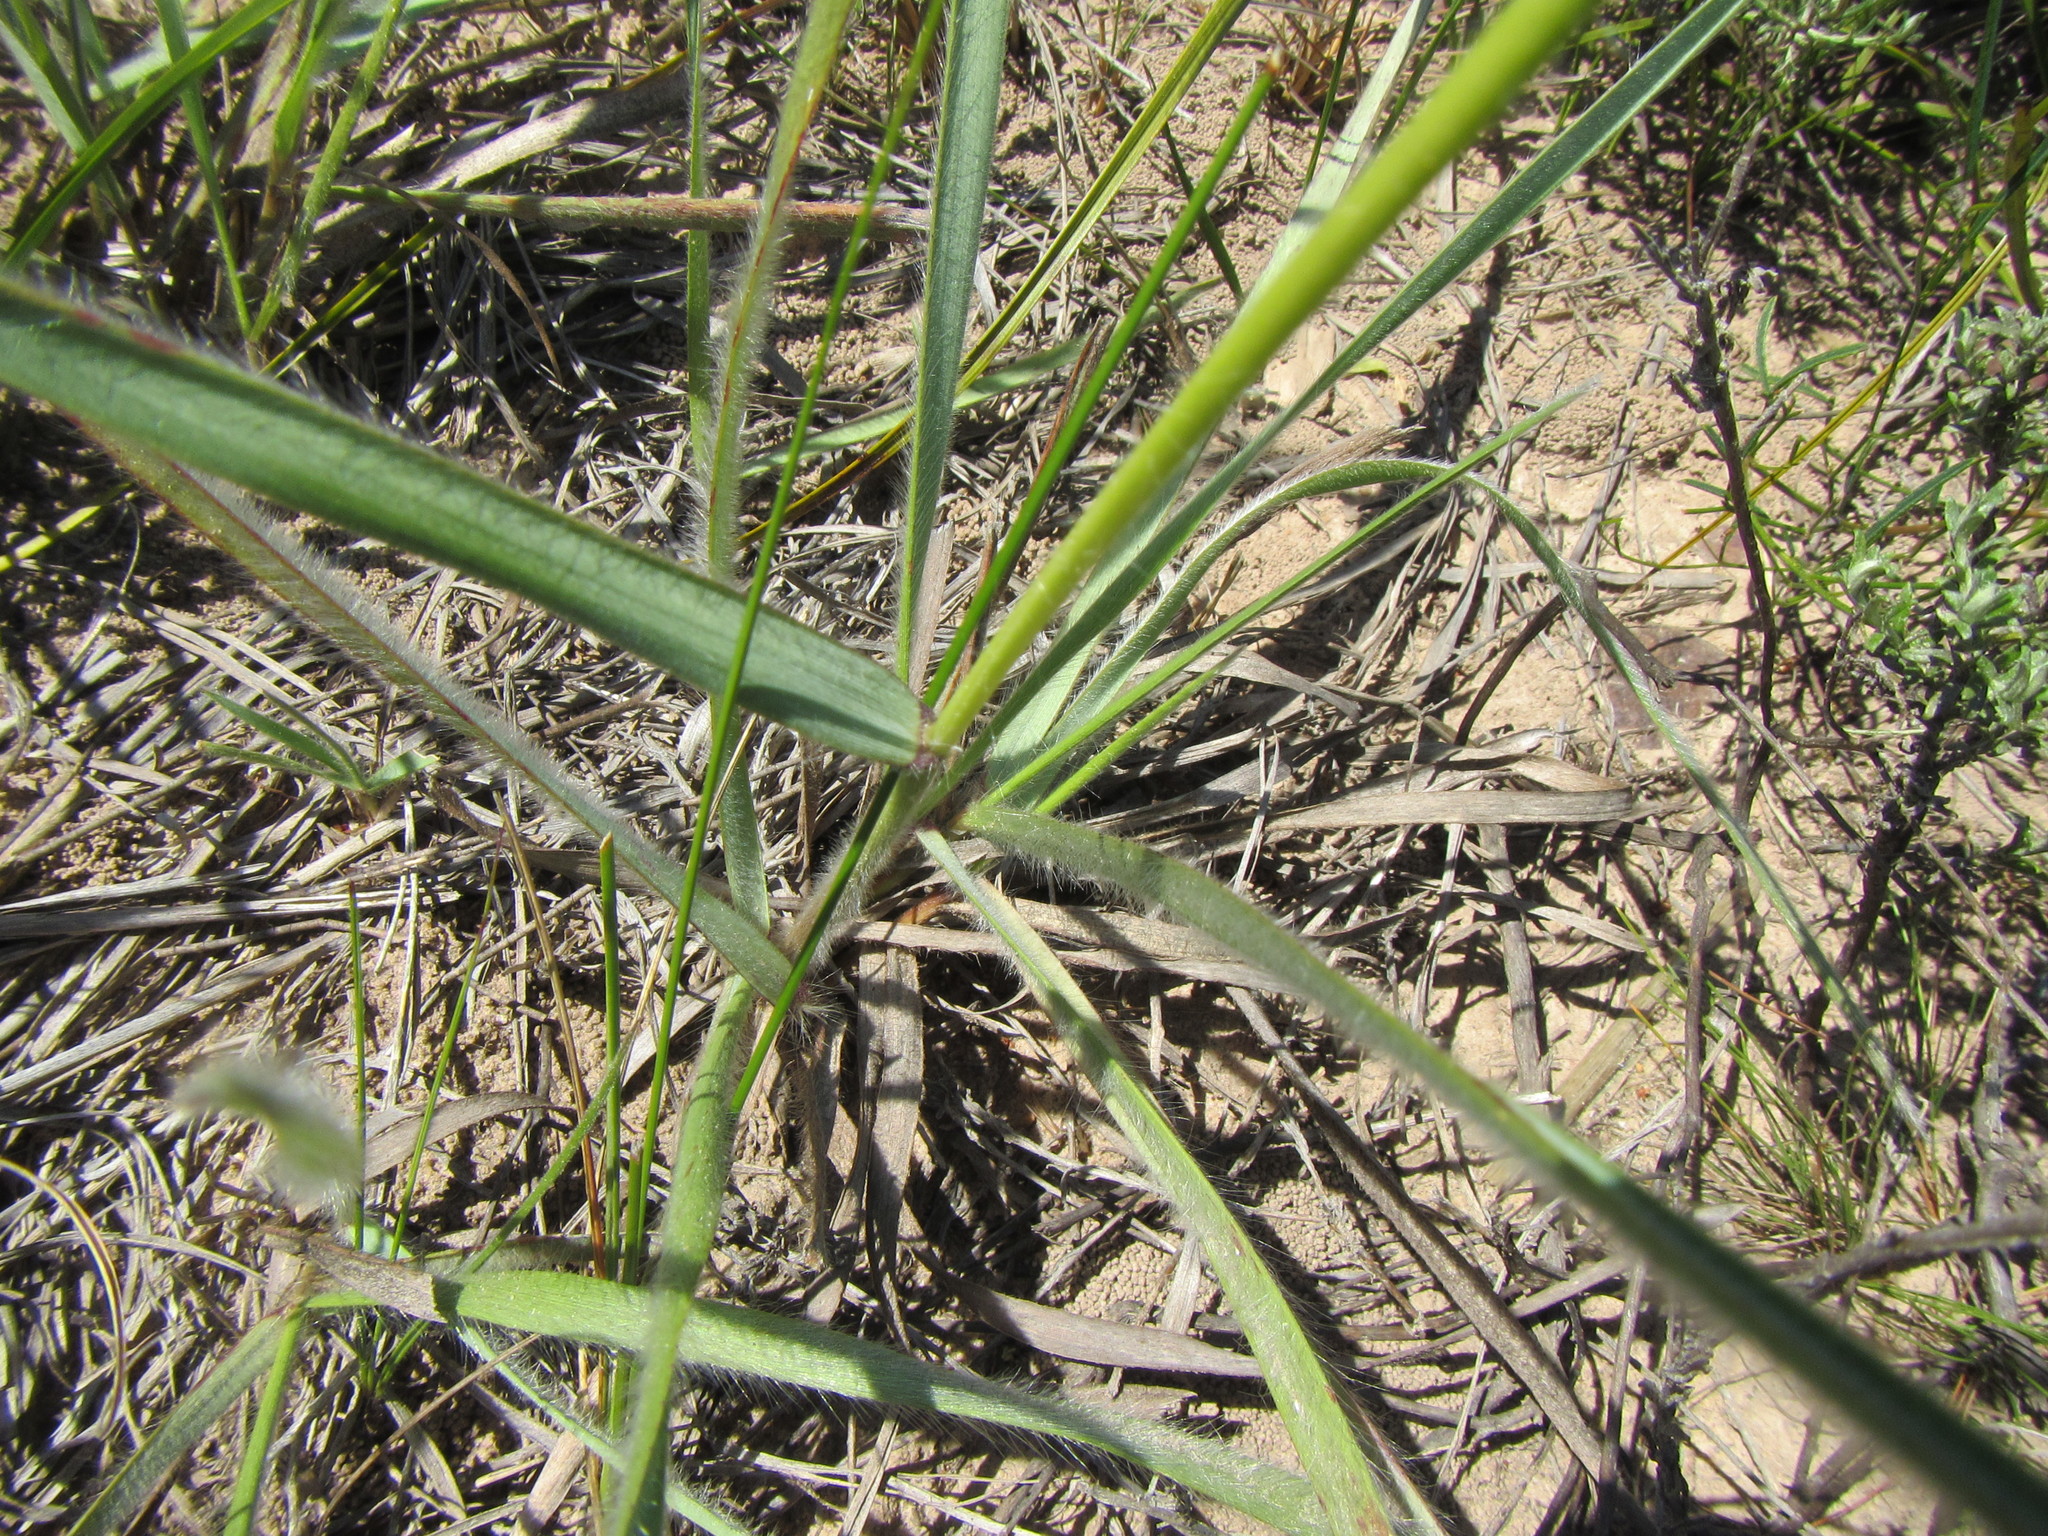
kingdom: Plantae
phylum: Tracheophyta
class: Liliopsida
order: Poales
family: Poaceae
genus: Tristachya
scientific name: Tristachya leucothrix
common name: Trident grass
